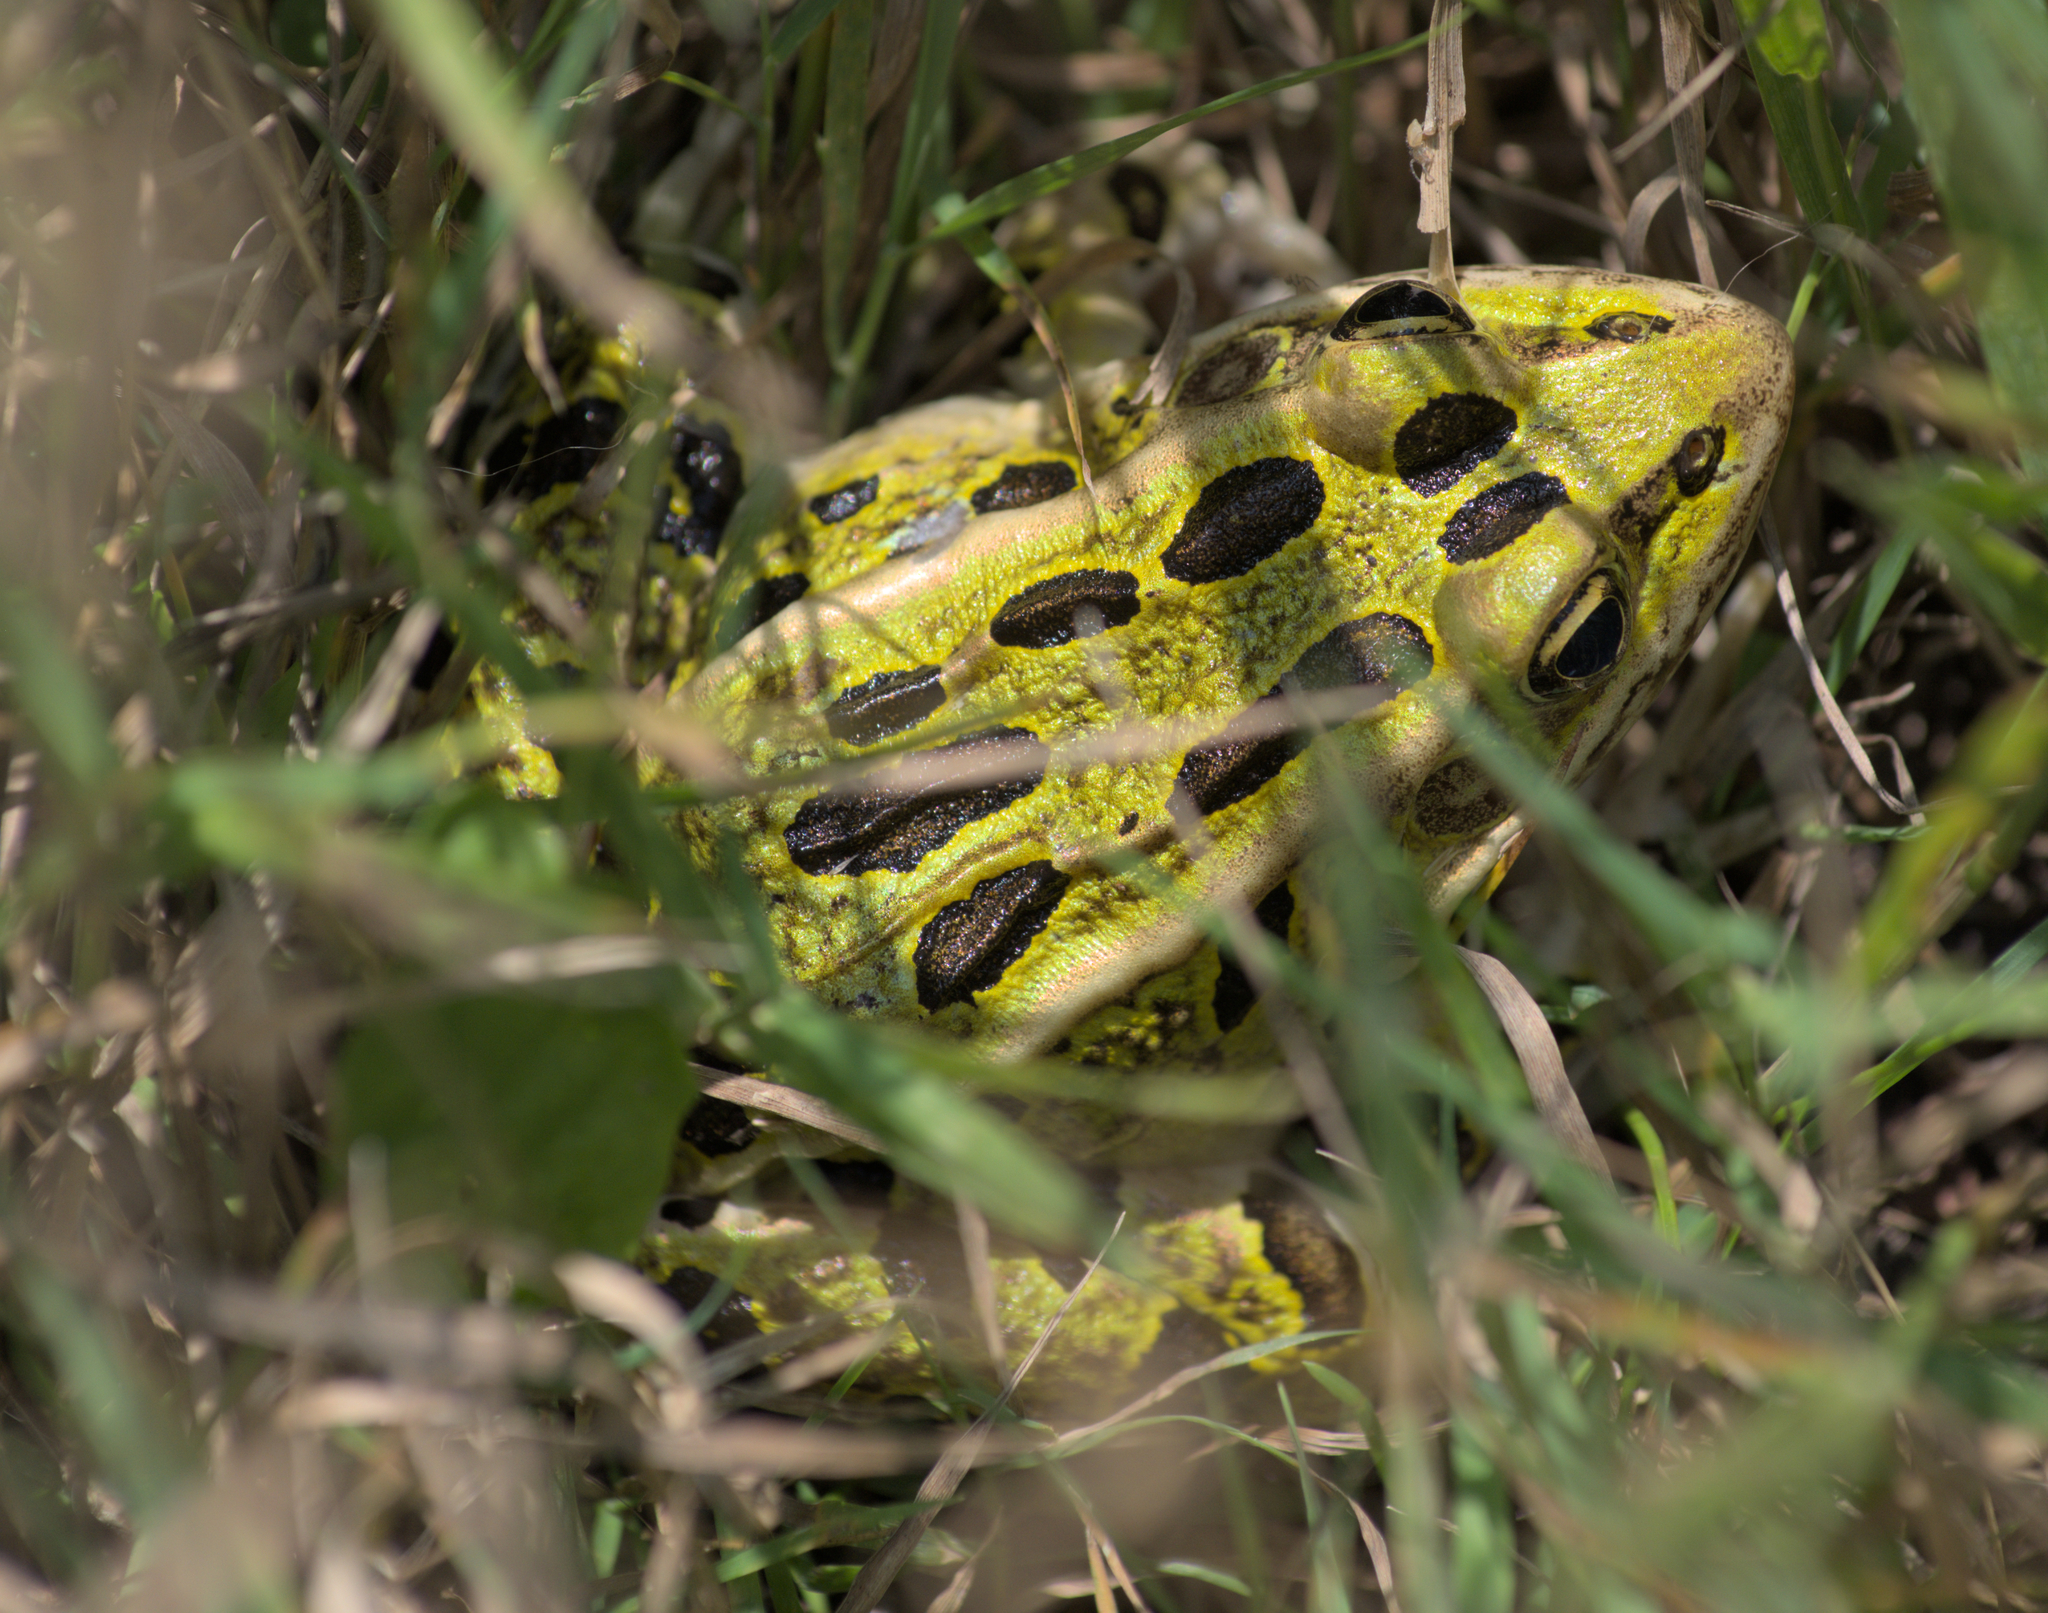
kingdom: Animalia
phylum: Chordata
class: Amphibia
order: Anura
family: Ranidae
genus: Lithobates
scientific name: Lithobates pipiens
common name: Northern leopard frog
